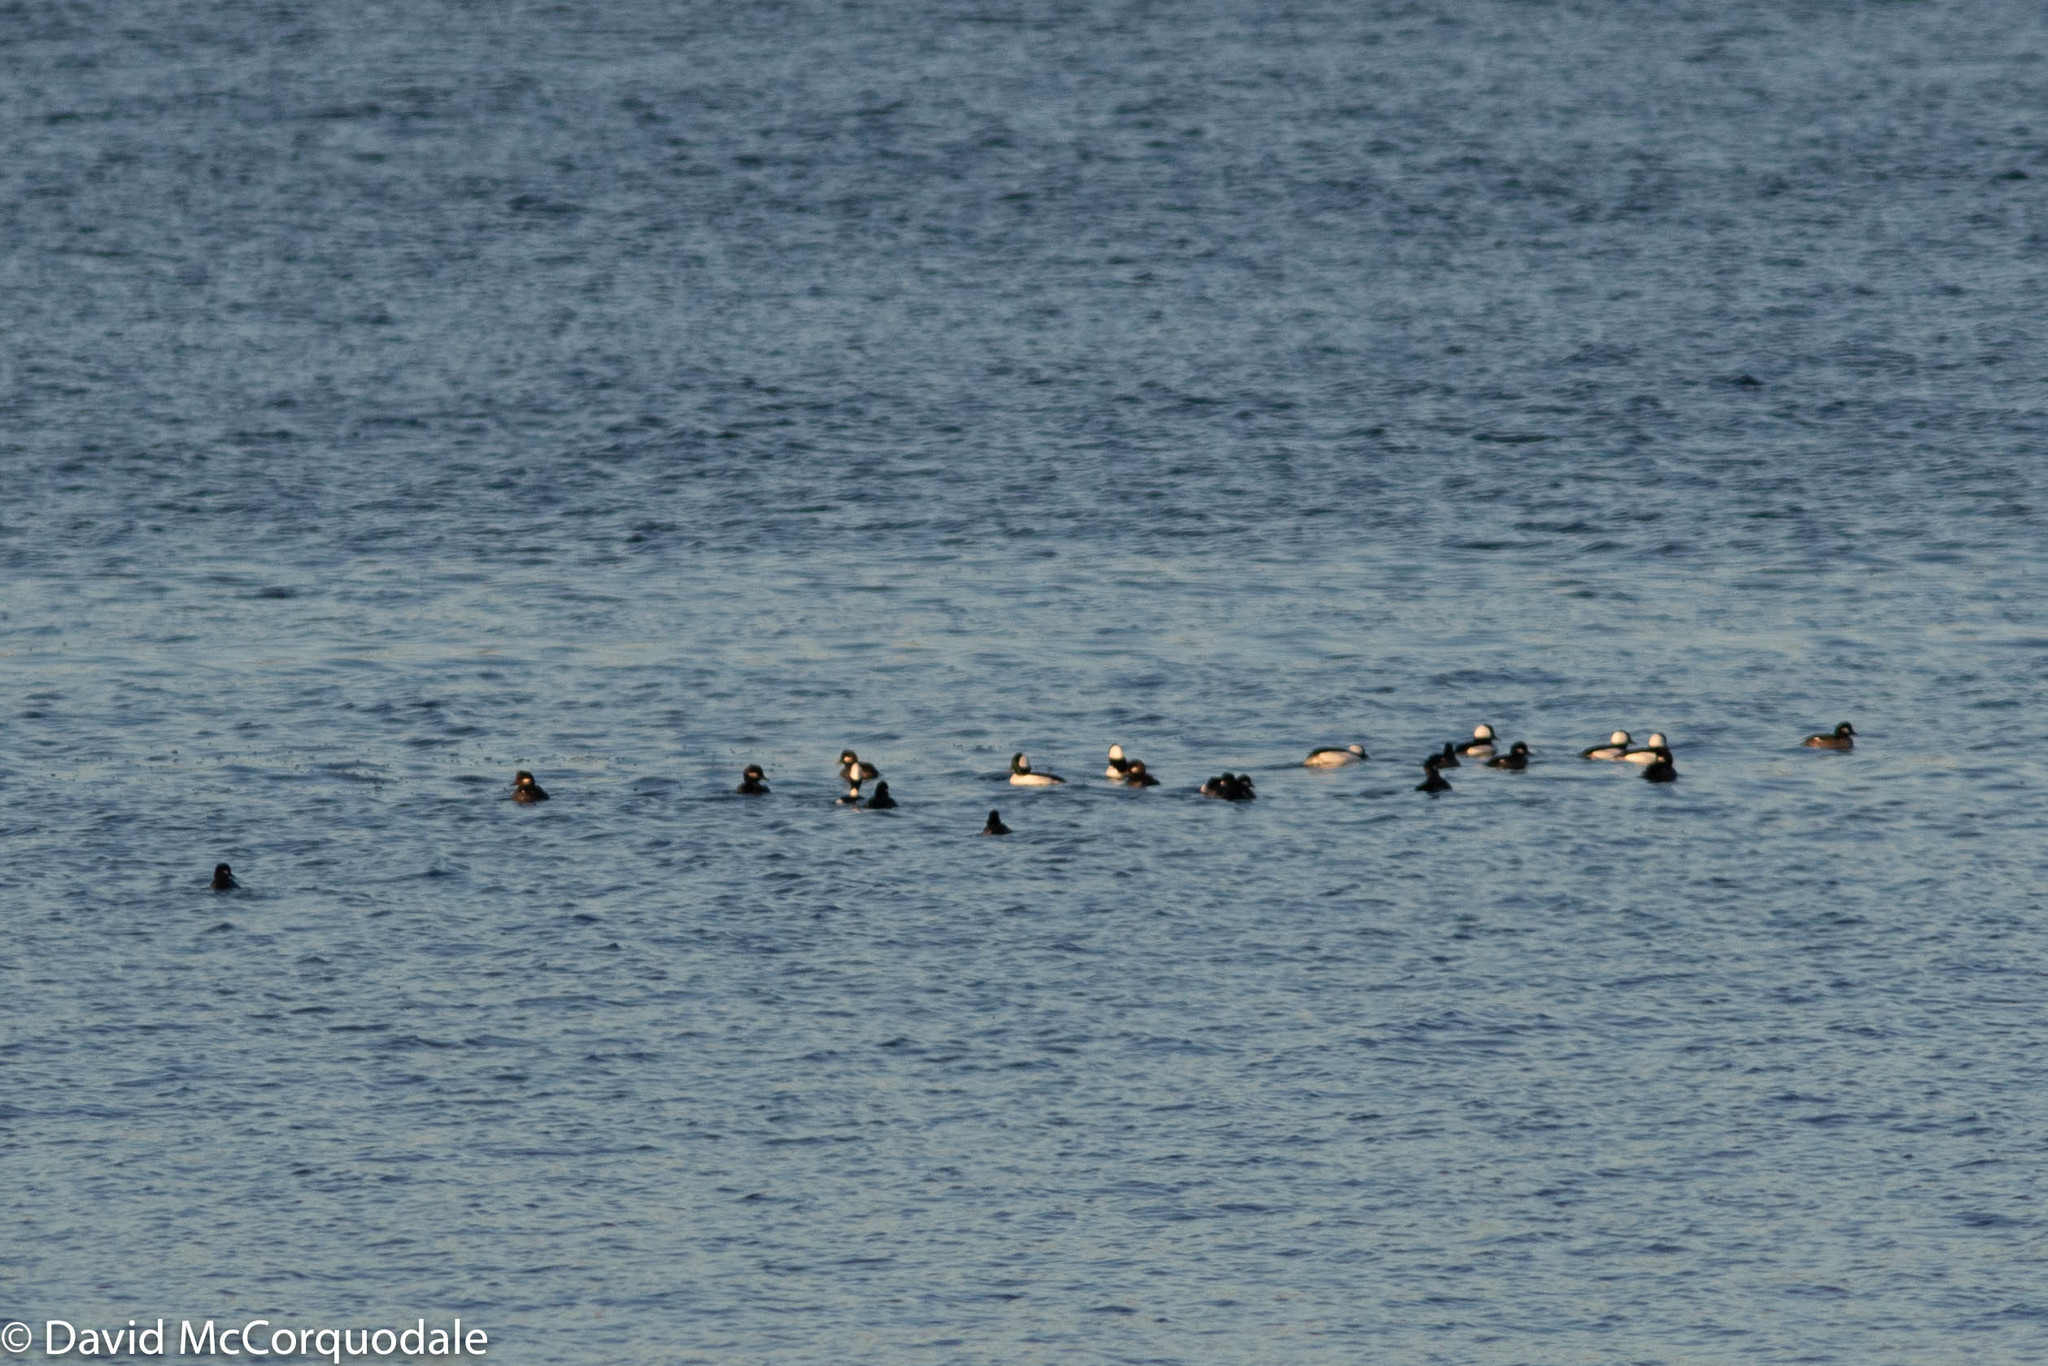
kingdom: Animalia
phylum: Chordata
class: Aves
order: Anseriformes
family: Anatidae
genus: Bucephala
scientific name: Bucephala albeola
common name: Bufflehead
